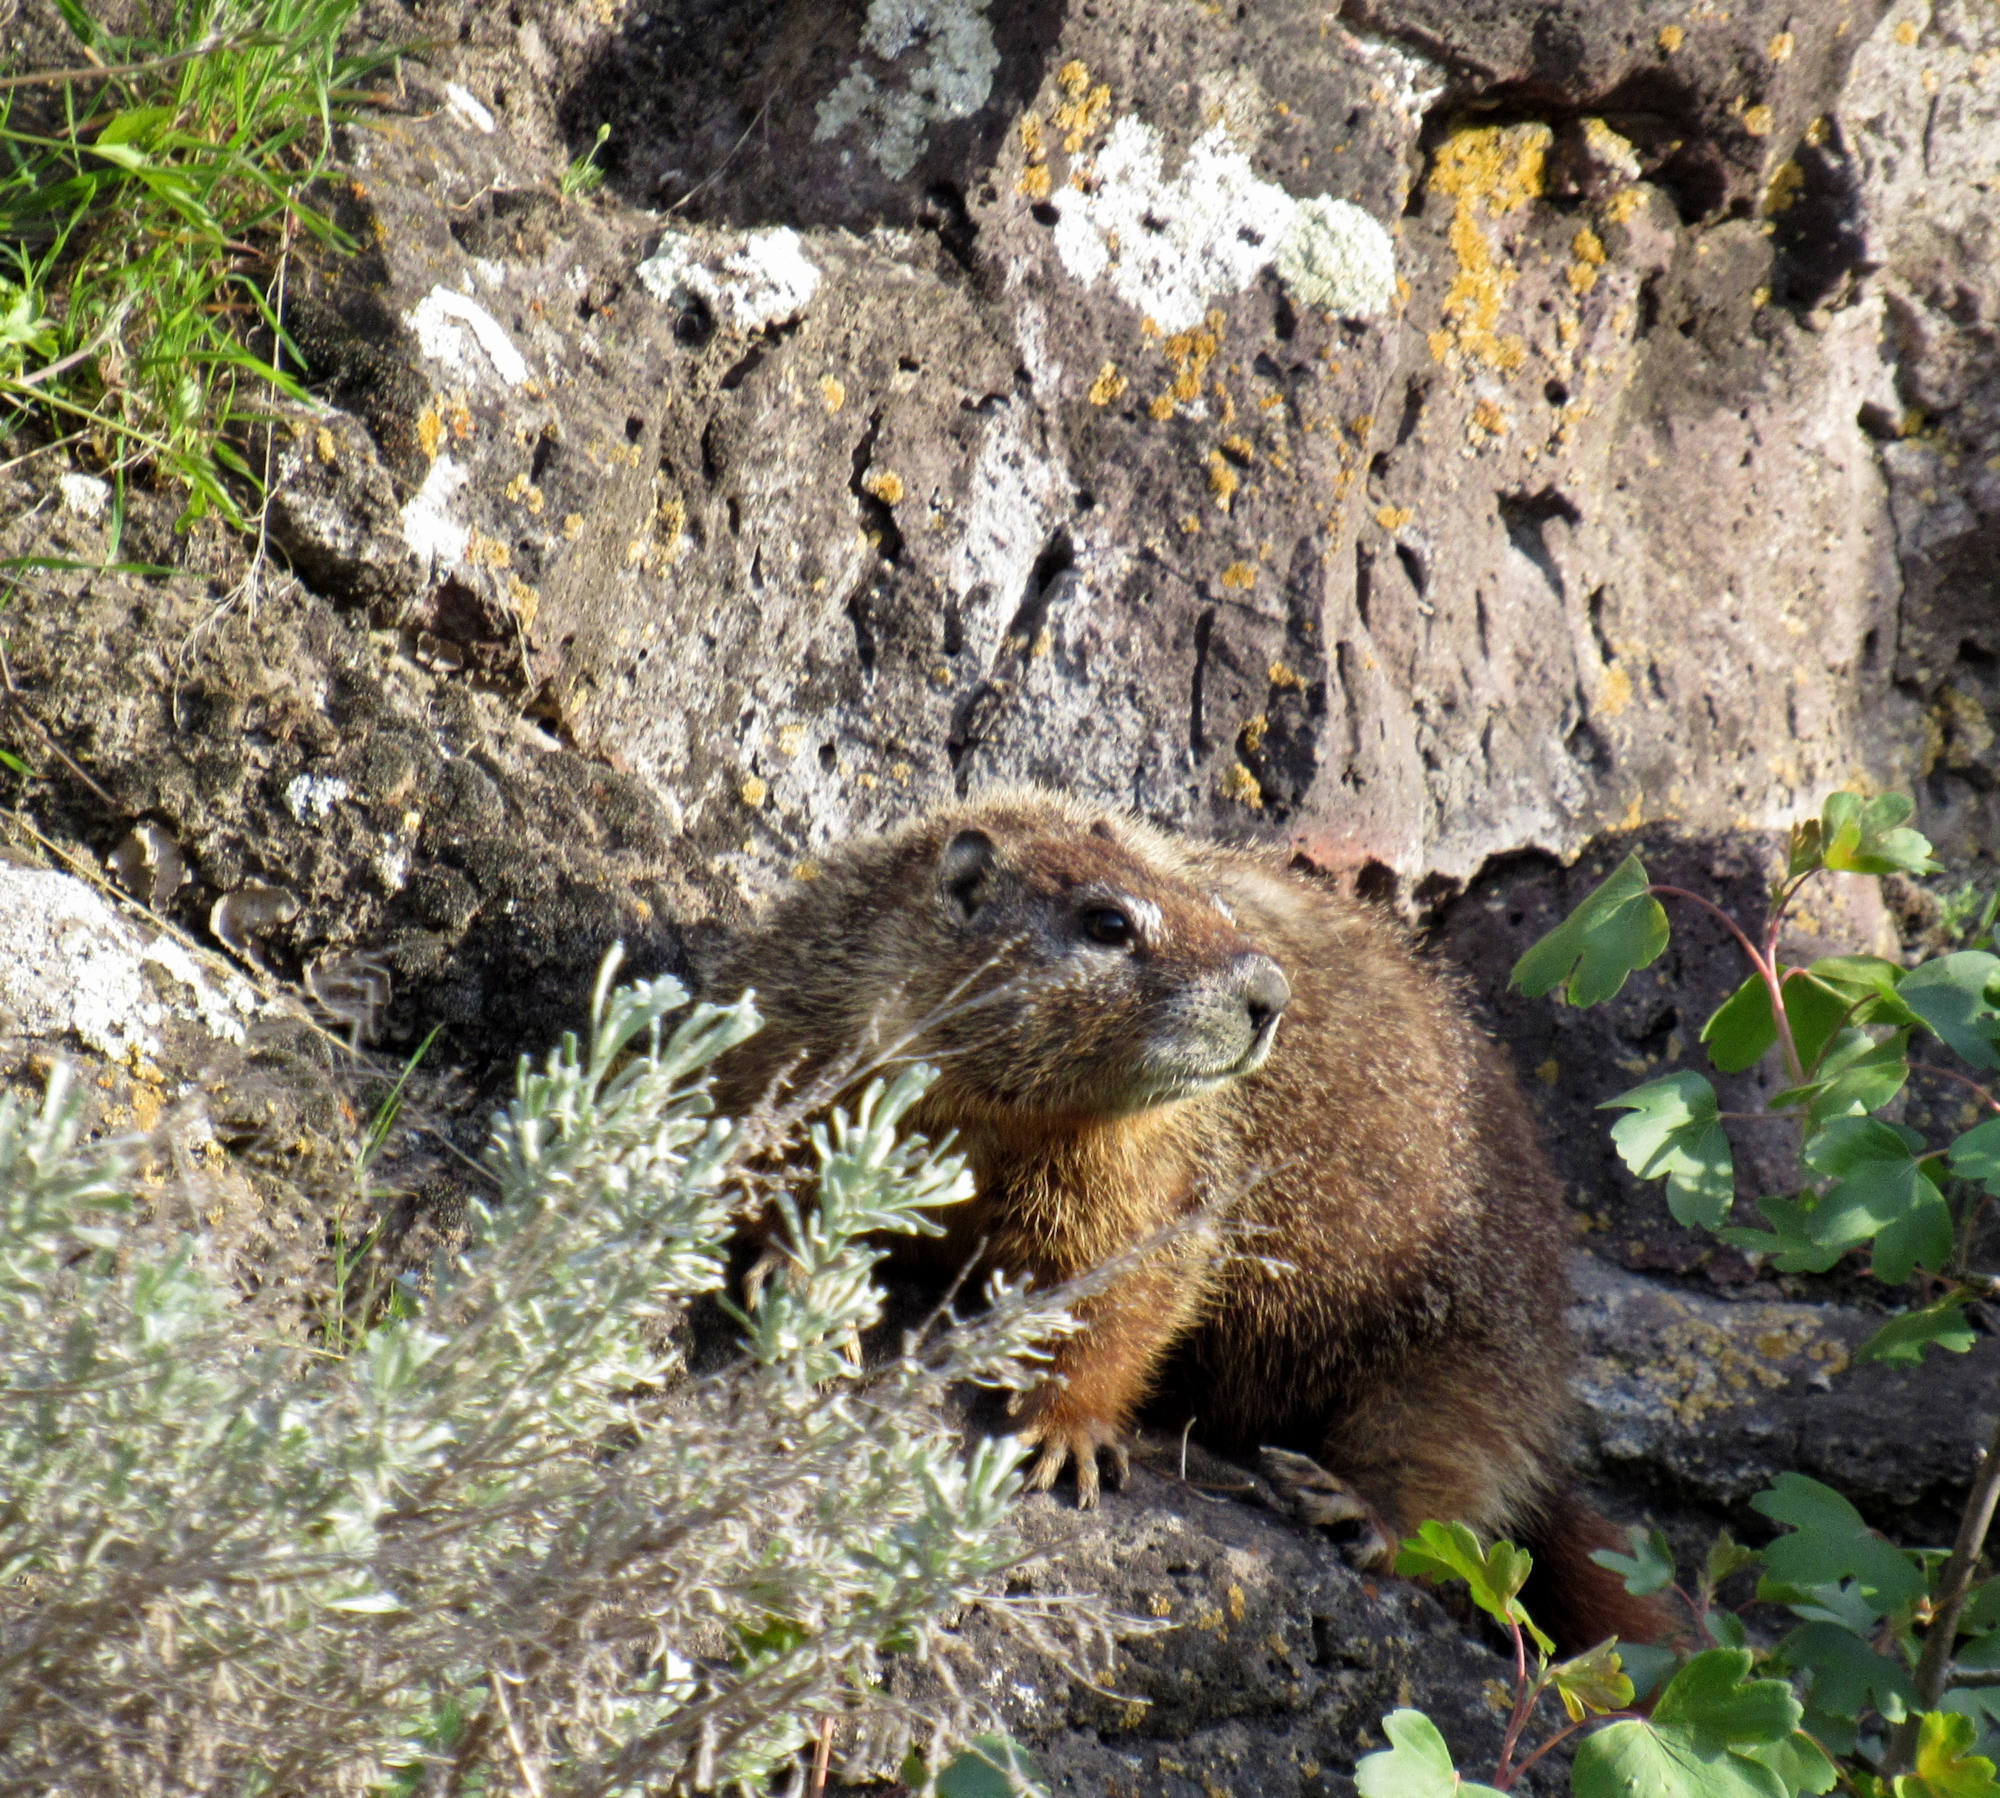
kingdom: Animalia
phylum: Chordata
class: Mammalia
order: Rodentia
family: Sciuridae
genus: Marmota
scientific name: Marmota flaviventris
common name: Yellow-bellied marmot
